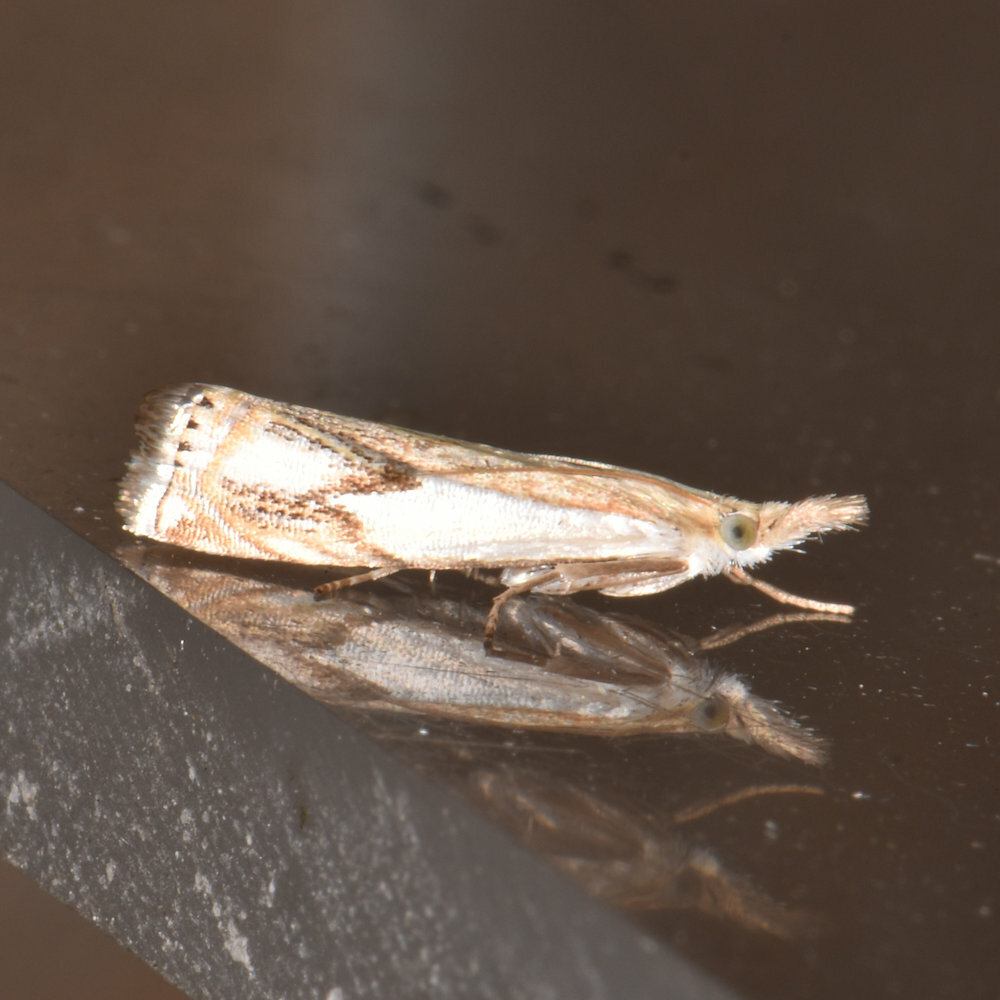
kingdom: Animalia
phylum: Arthropoda
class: Insecta
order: Lepidoptera
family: Crambidae
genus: Crambus
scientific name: Crambus agitatellus
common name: Double-banded grass-veneer
